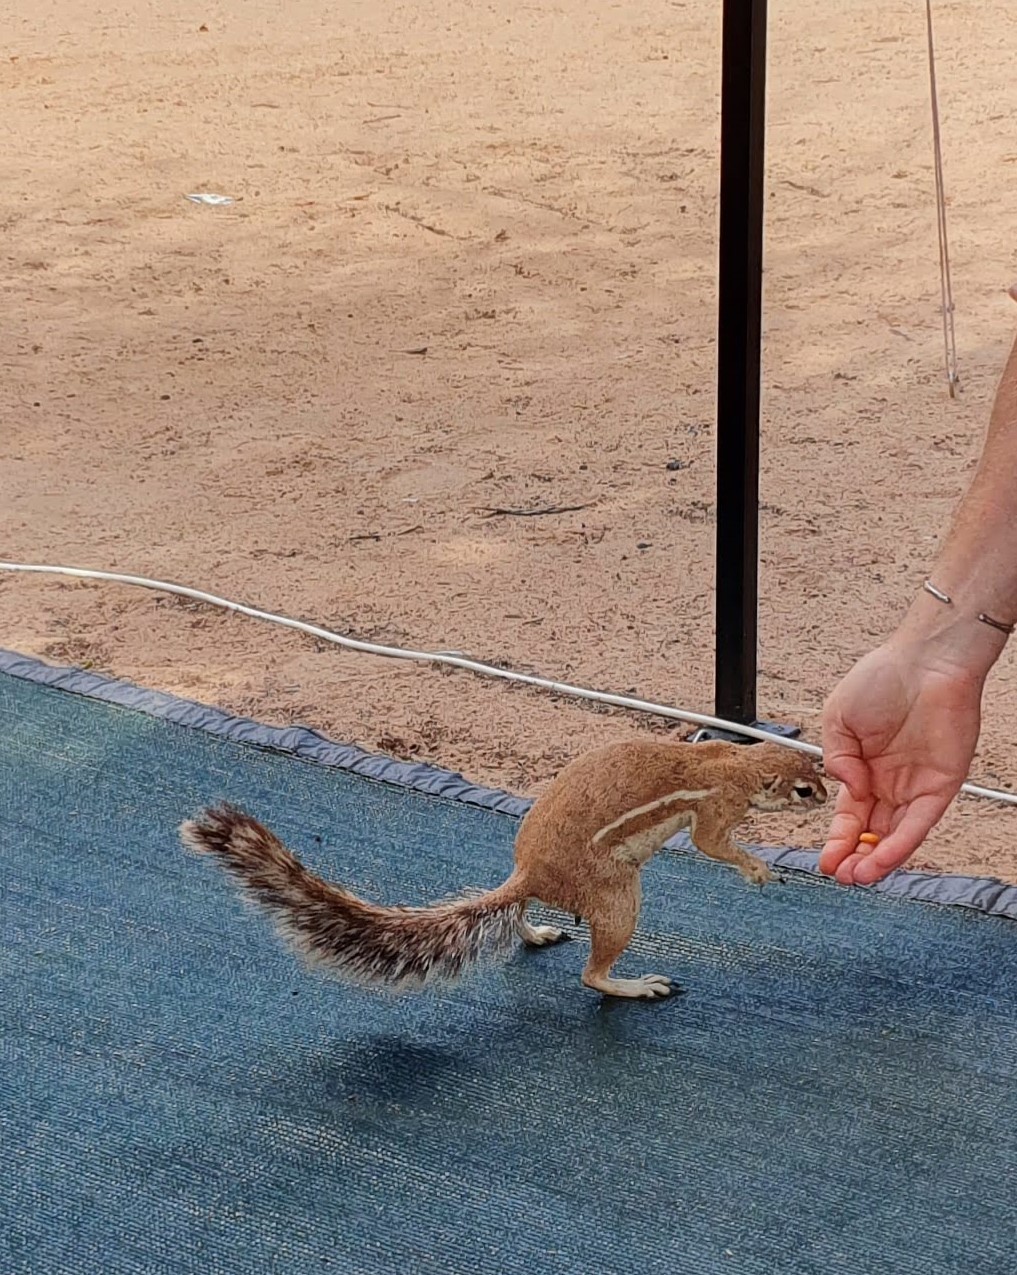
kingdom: Animalia
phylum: Chordata
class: Mammalia
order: Rodentia
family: Sciuridae
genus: Xerus
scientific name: Xerus inauris
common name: South african ground squirrel
